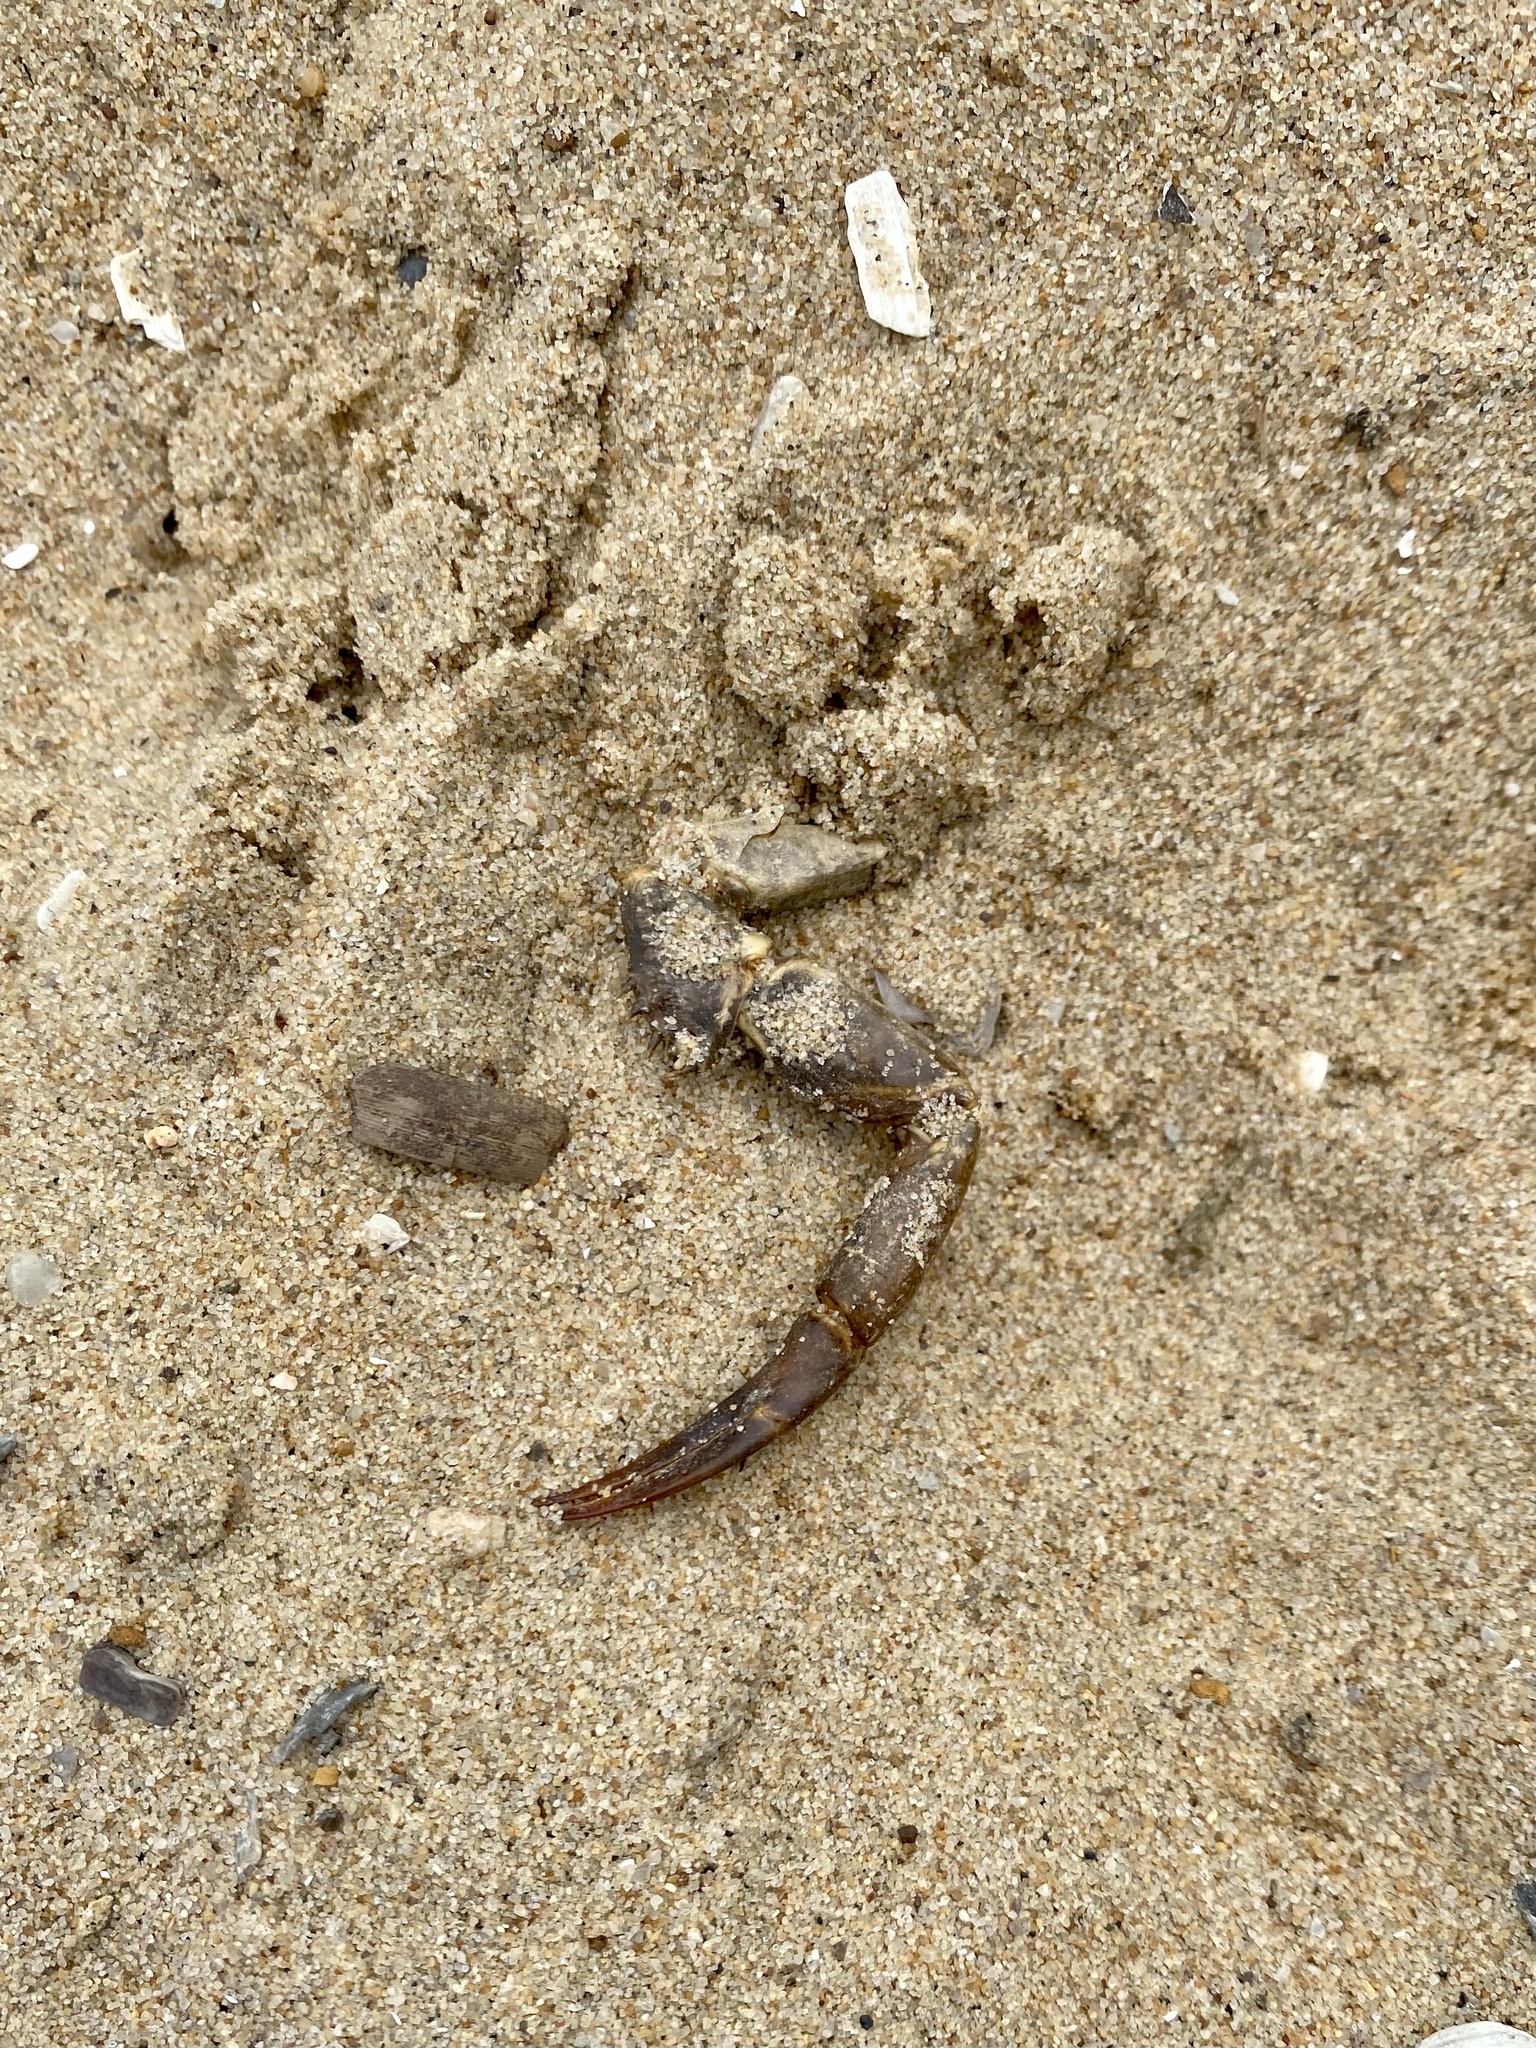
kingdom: Animalia
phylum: Arthropoda
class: Merostomata
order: Xiphosurida
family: Limulidae
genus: Limulus
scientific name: Limulus polyphemus
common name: Horseshoe crab
